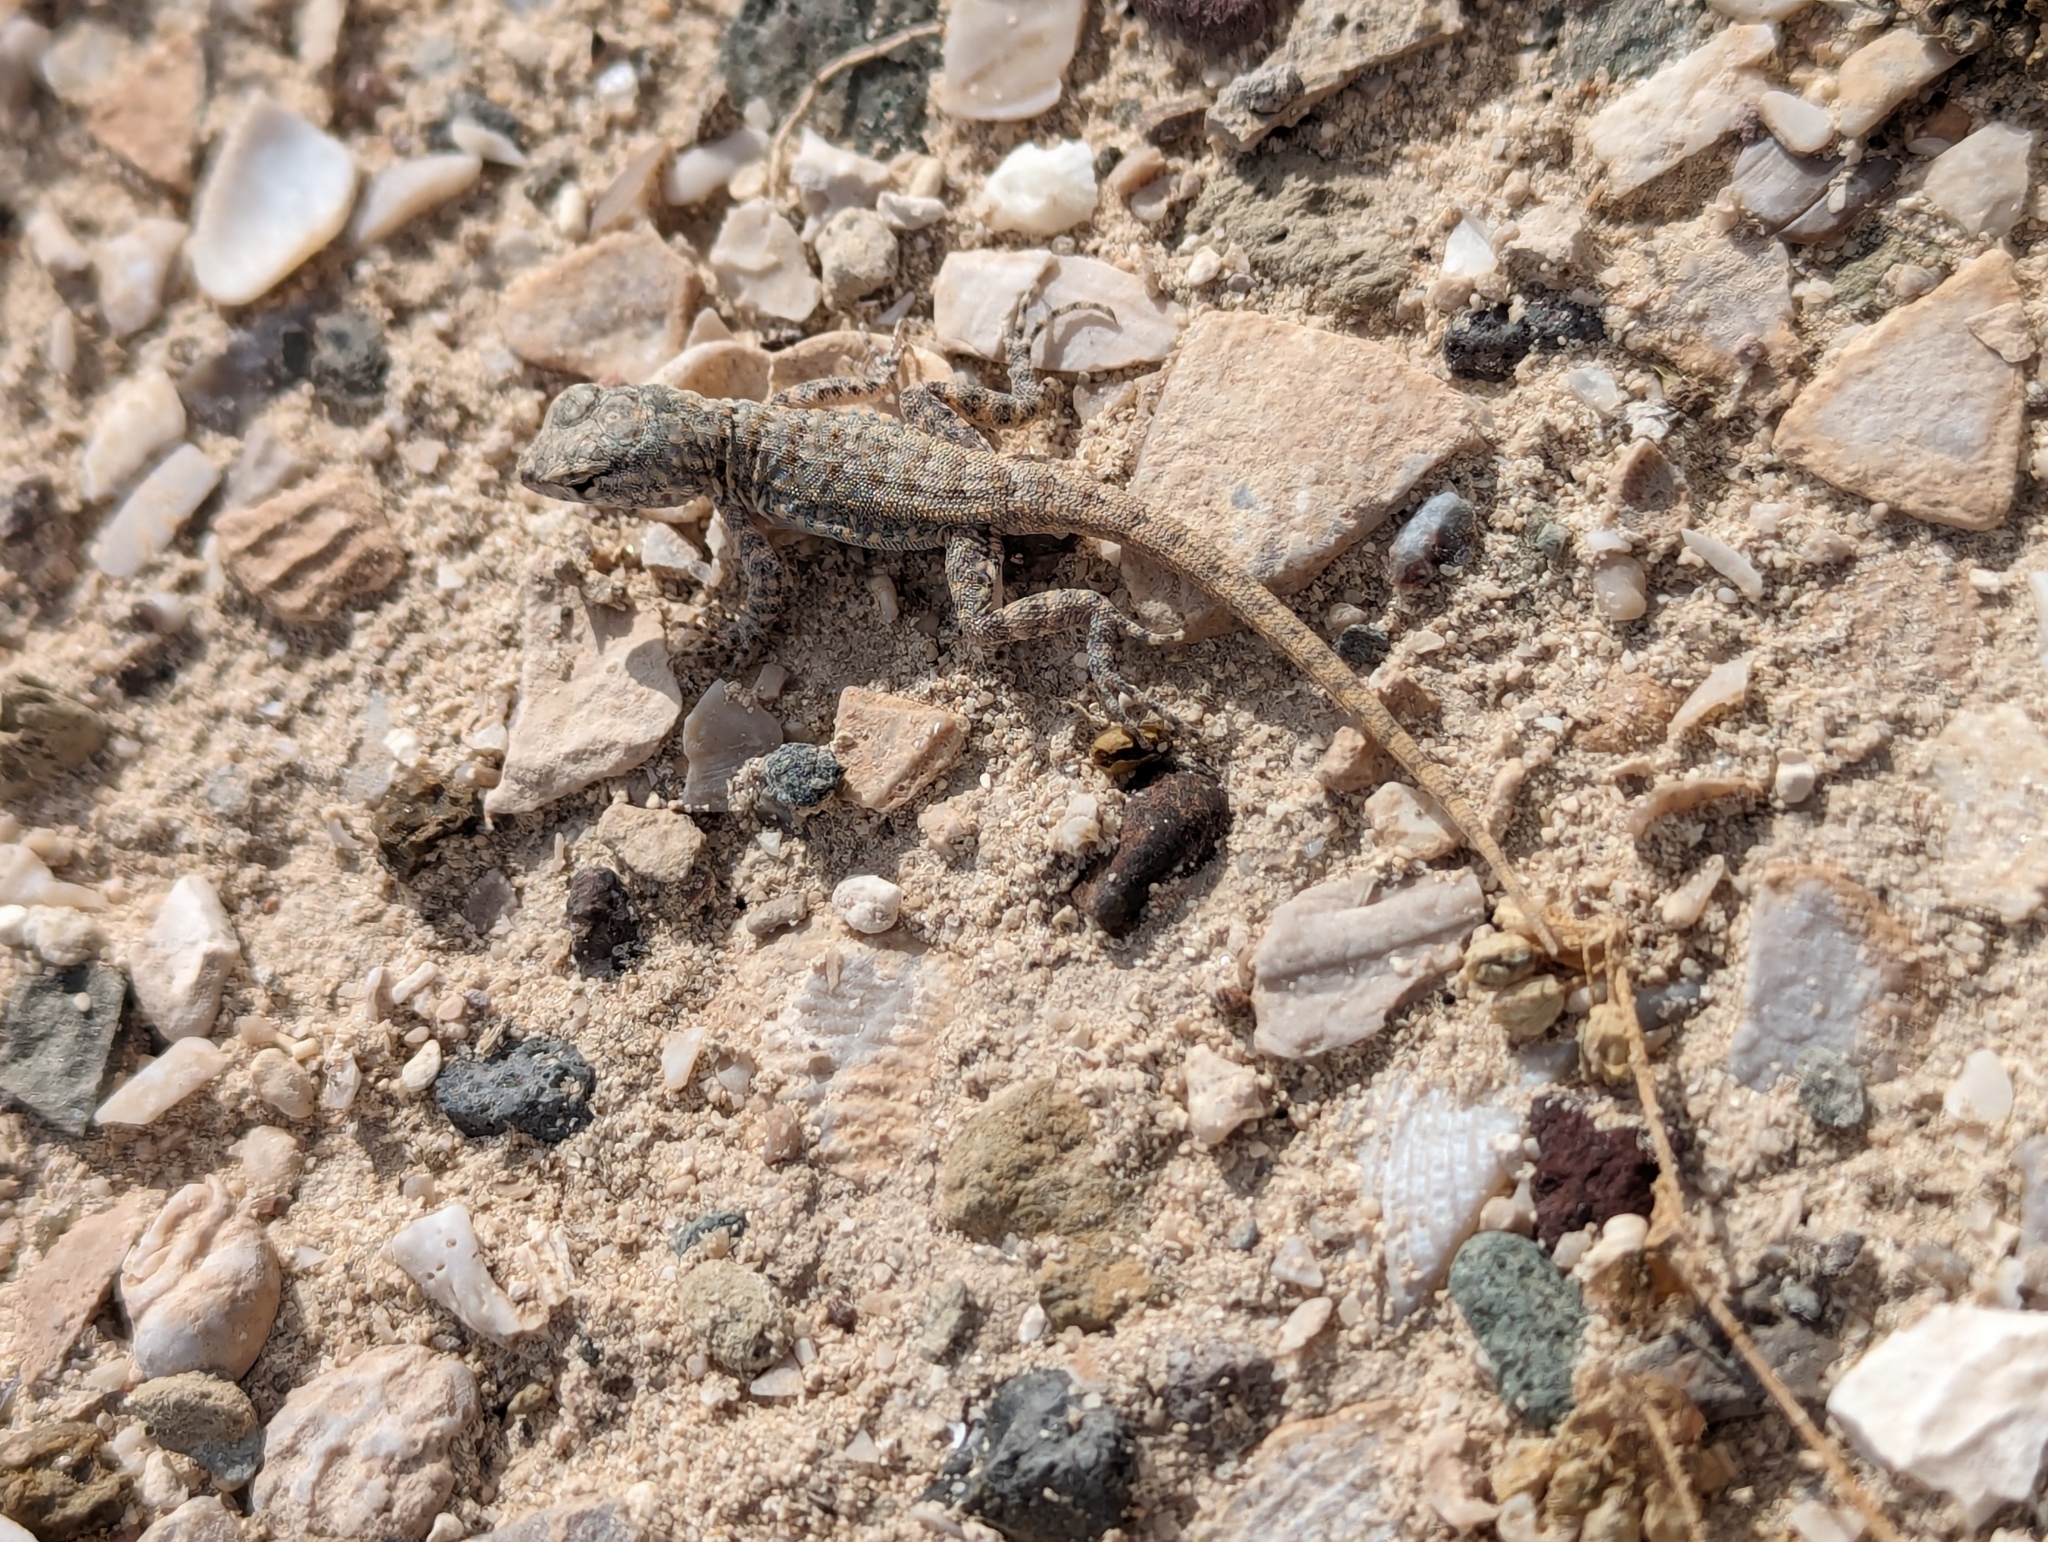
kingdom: Animalia
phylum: Chordata
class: Squamata
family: Phrynosomatidae
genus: Uta
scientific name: Uta stansburiana
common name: Side-blotched lizard
